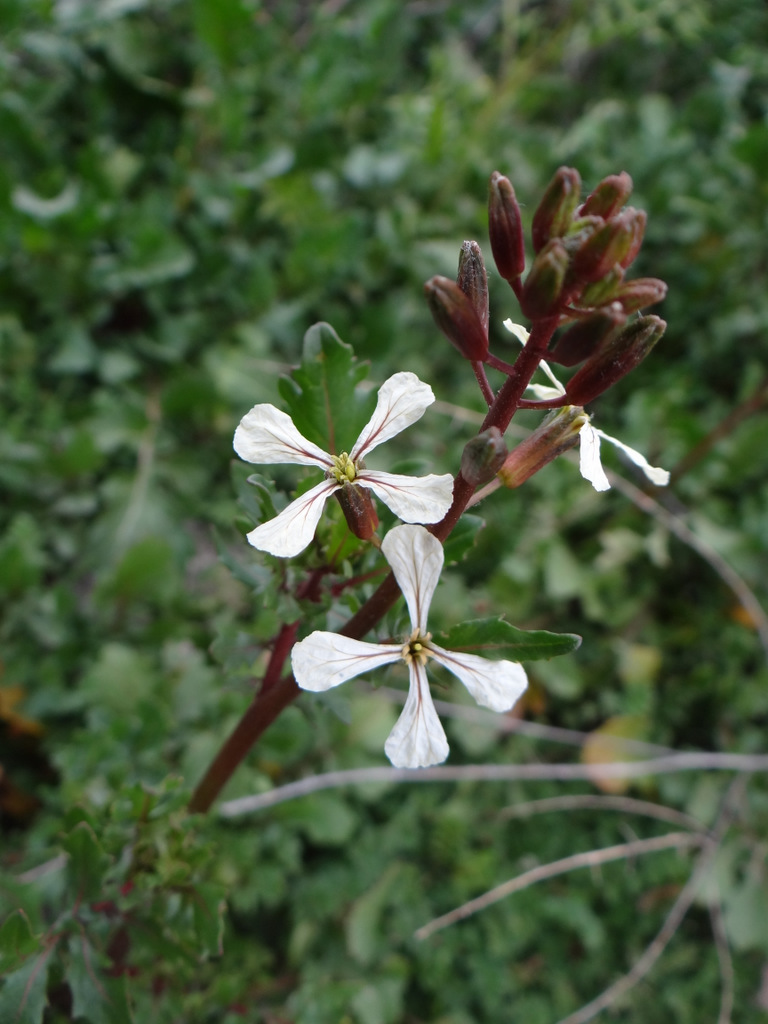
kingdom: Plantae
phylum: Tracheophyta
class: Magnoliopsida
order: Brassicales
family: Brassicaceae
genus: Eruca
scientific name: Eruca vesicaria
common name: Garden rocket
